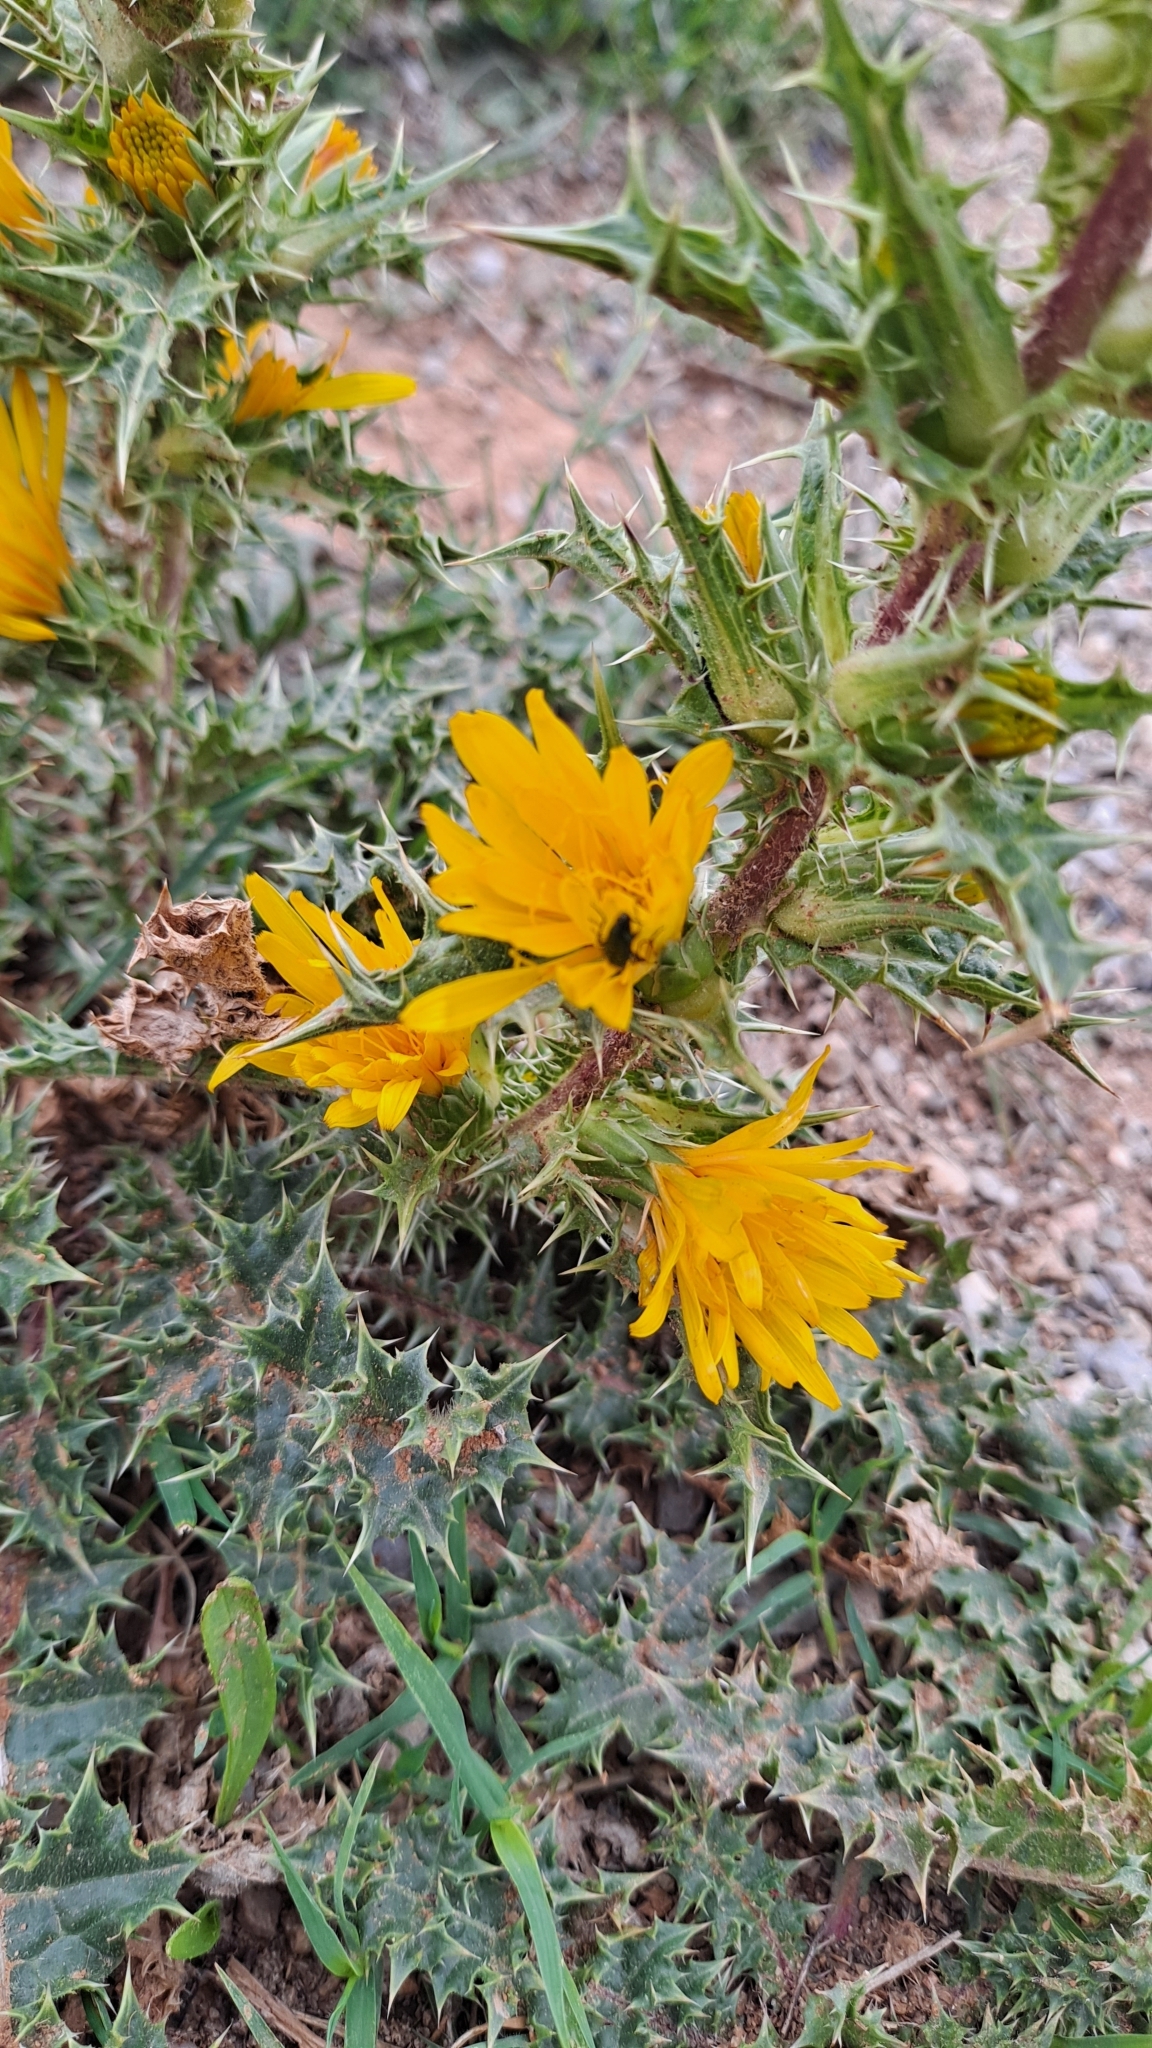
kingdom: Plantae
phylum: Tracheophyta
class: Magnoliopsida
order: Asterales
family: Asteraceae
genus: Scolymus
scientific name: Scolymus hispanicus
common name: Golden thistle
